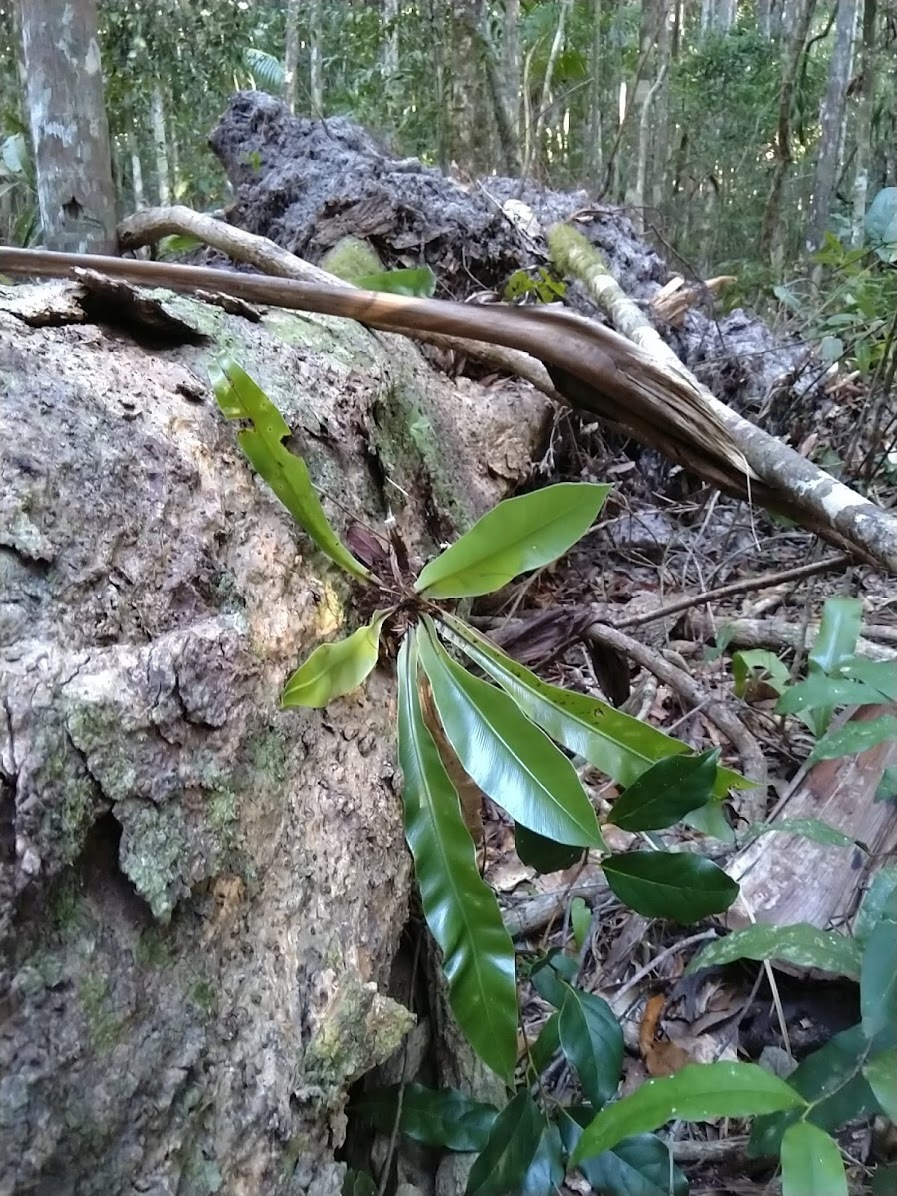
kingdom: Plantae
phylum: Tracheophyta
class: Polypodiopsida
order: Polypodiales
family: Aspleniaceae
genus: Asplenium
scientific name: Asplenium australasicum
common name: Bird's-nest fern
